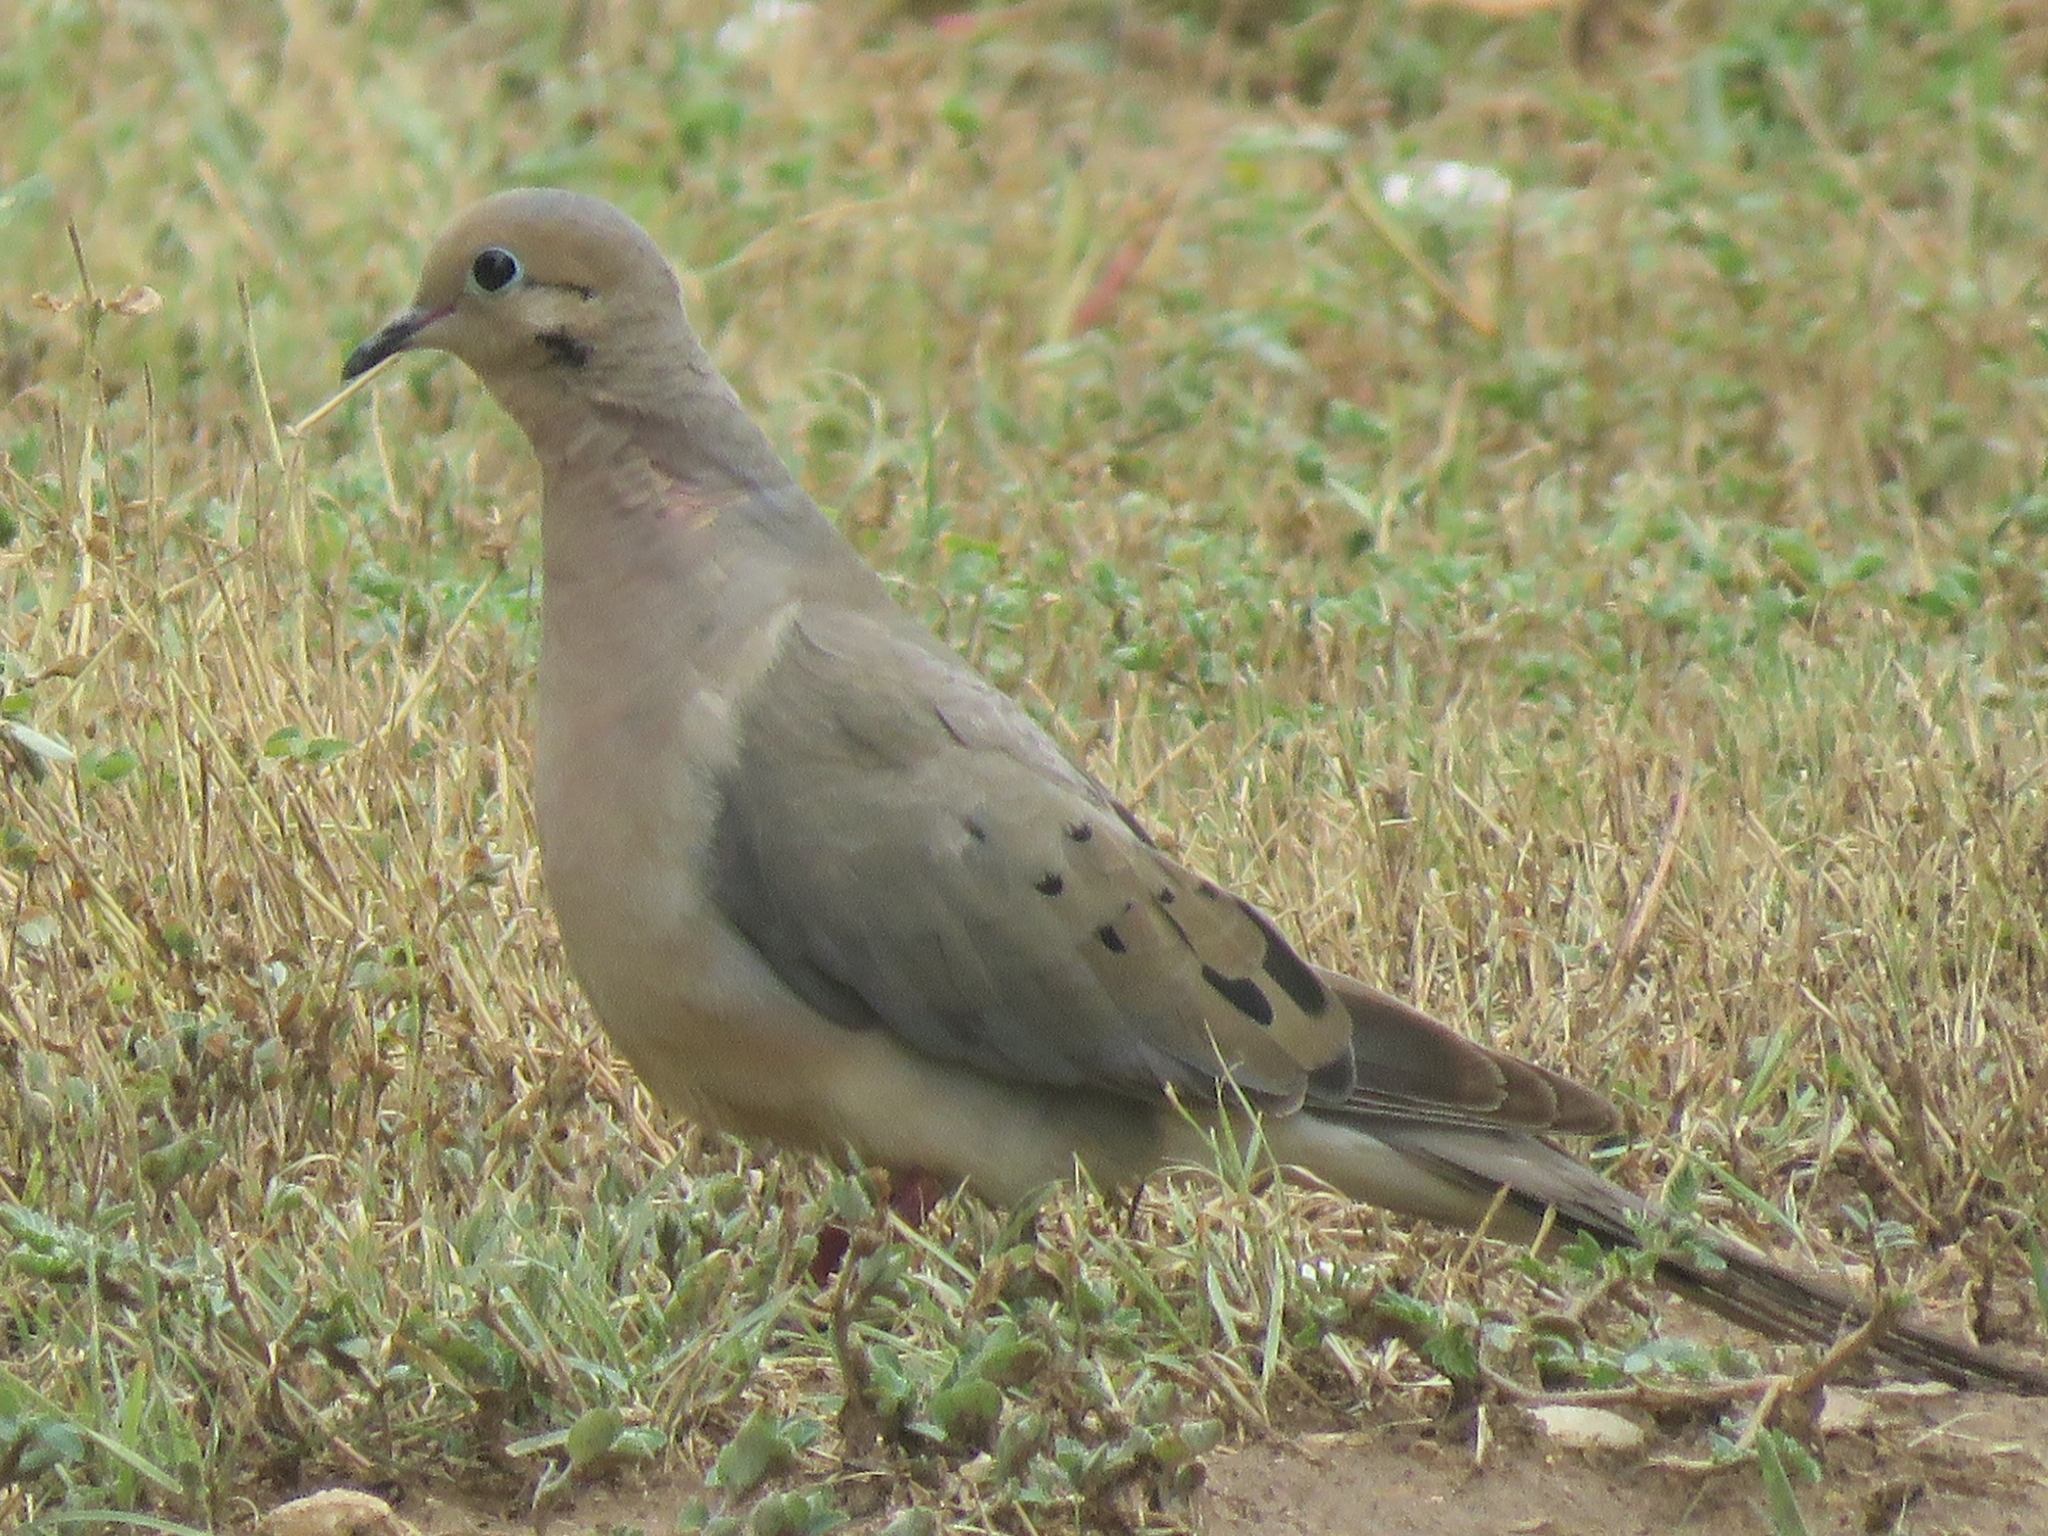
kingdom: Animalia
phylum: Chordata
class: Aves
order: Columbiformes
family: Columbidae
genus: Zenaida
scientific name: Zenaida macroura
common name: Mourning dove
